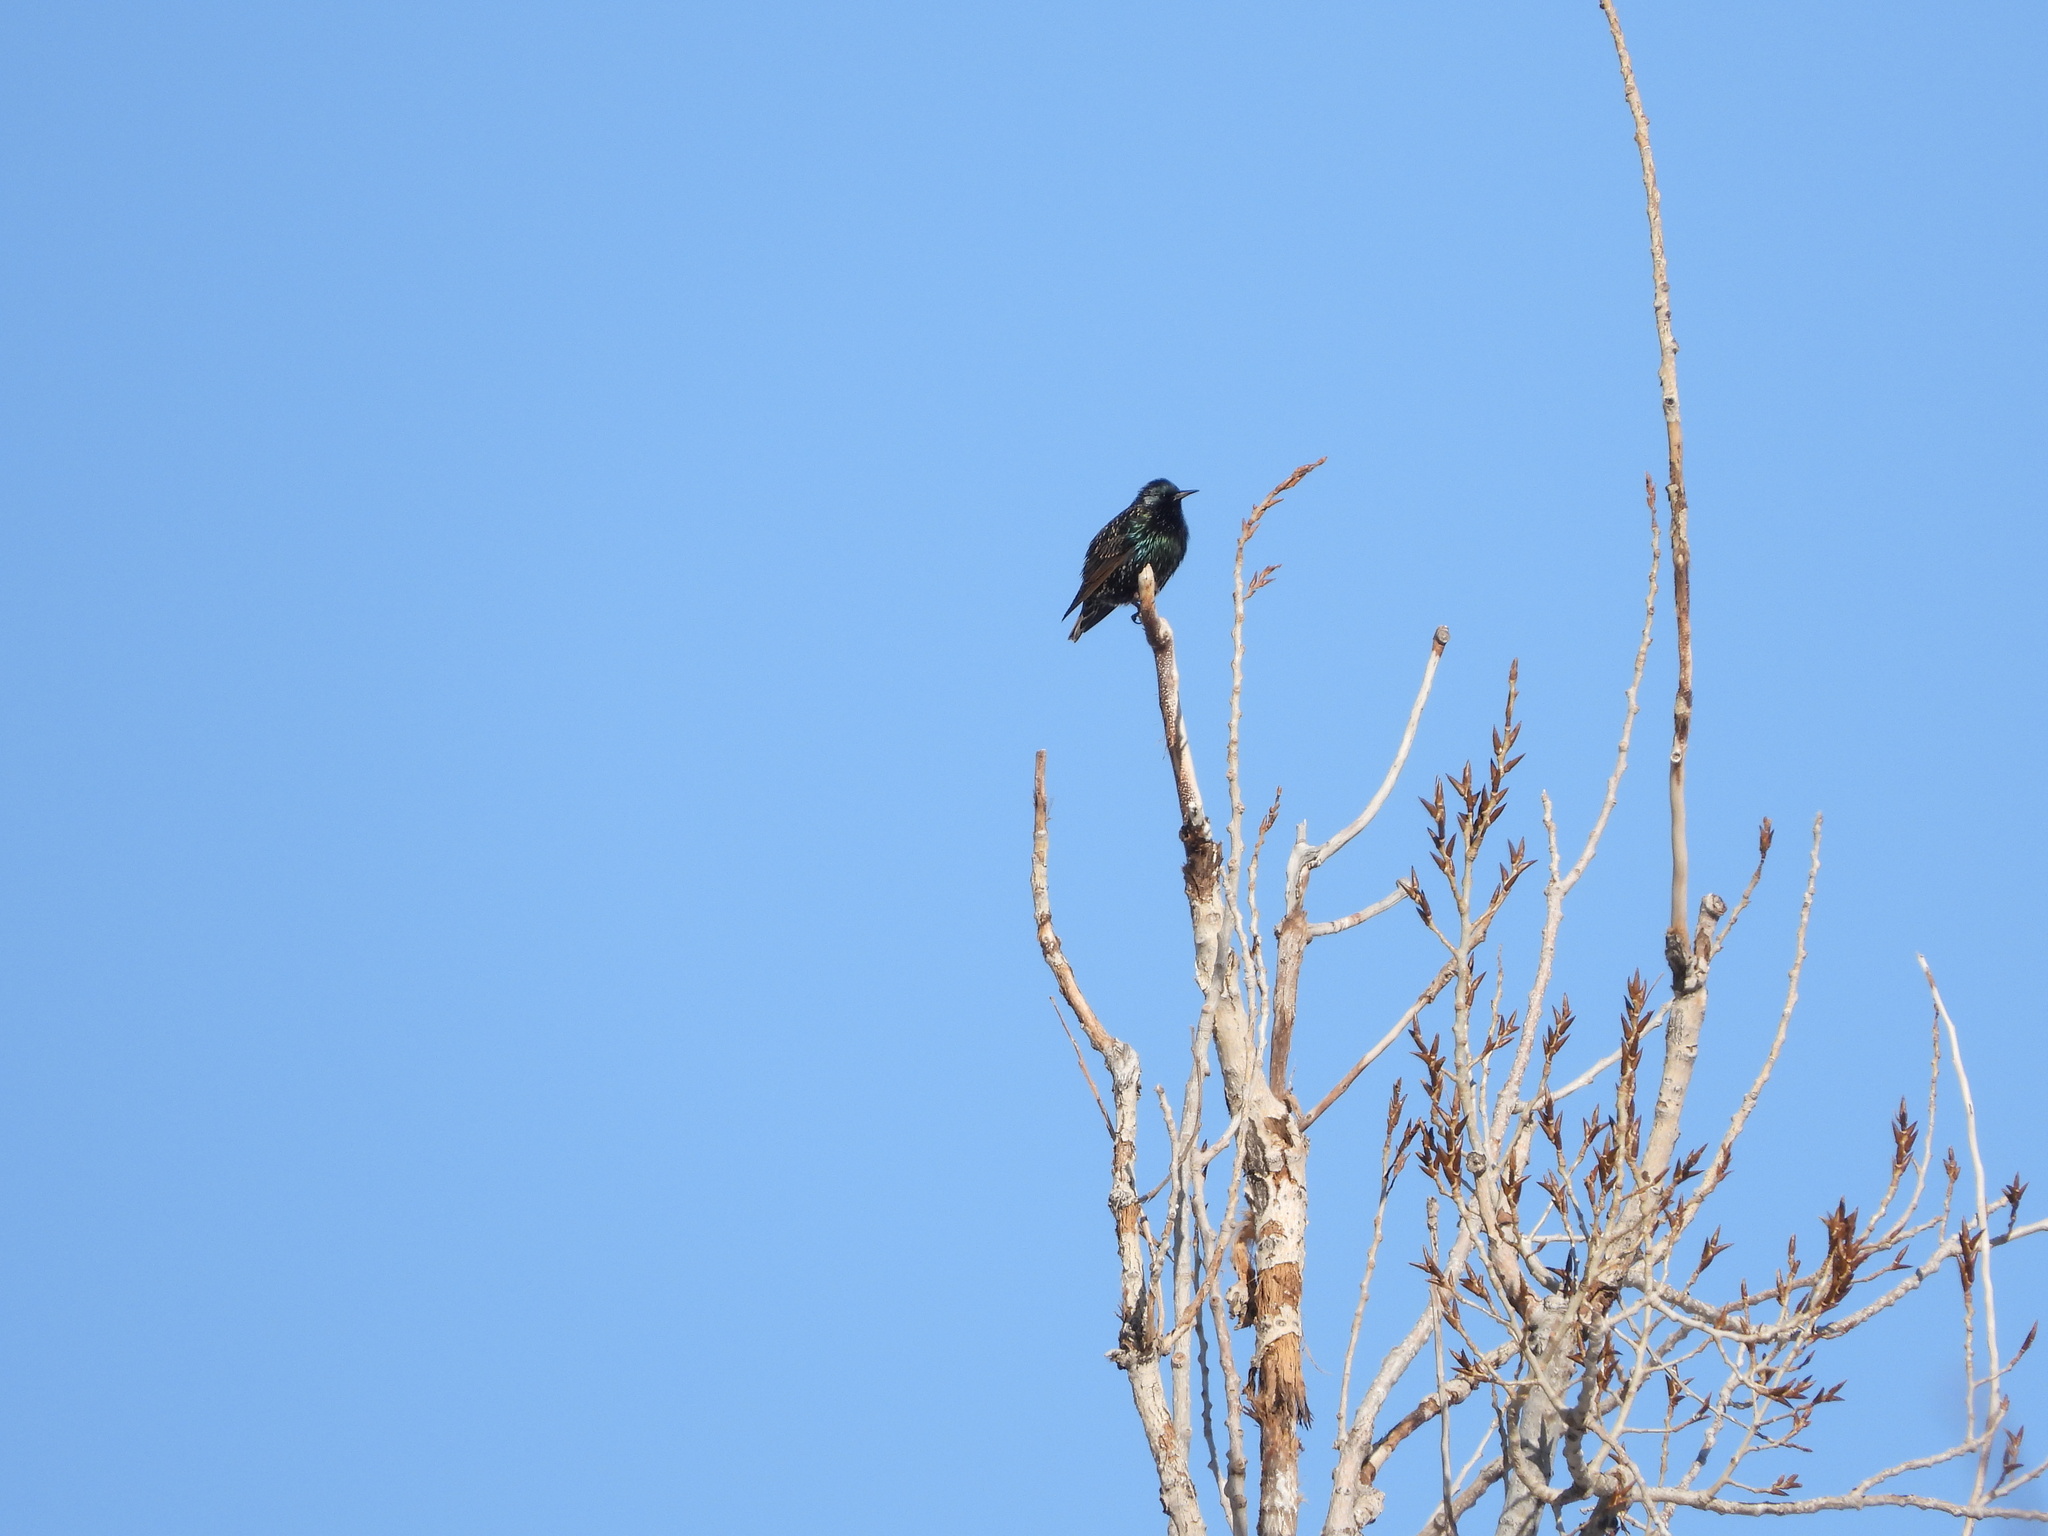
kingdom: Animalia
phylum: Chordata
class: Aves
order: Passeriformes
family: Sturnidae
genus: Sturnus
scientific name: Sturnus vulgaris
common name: Common starling
